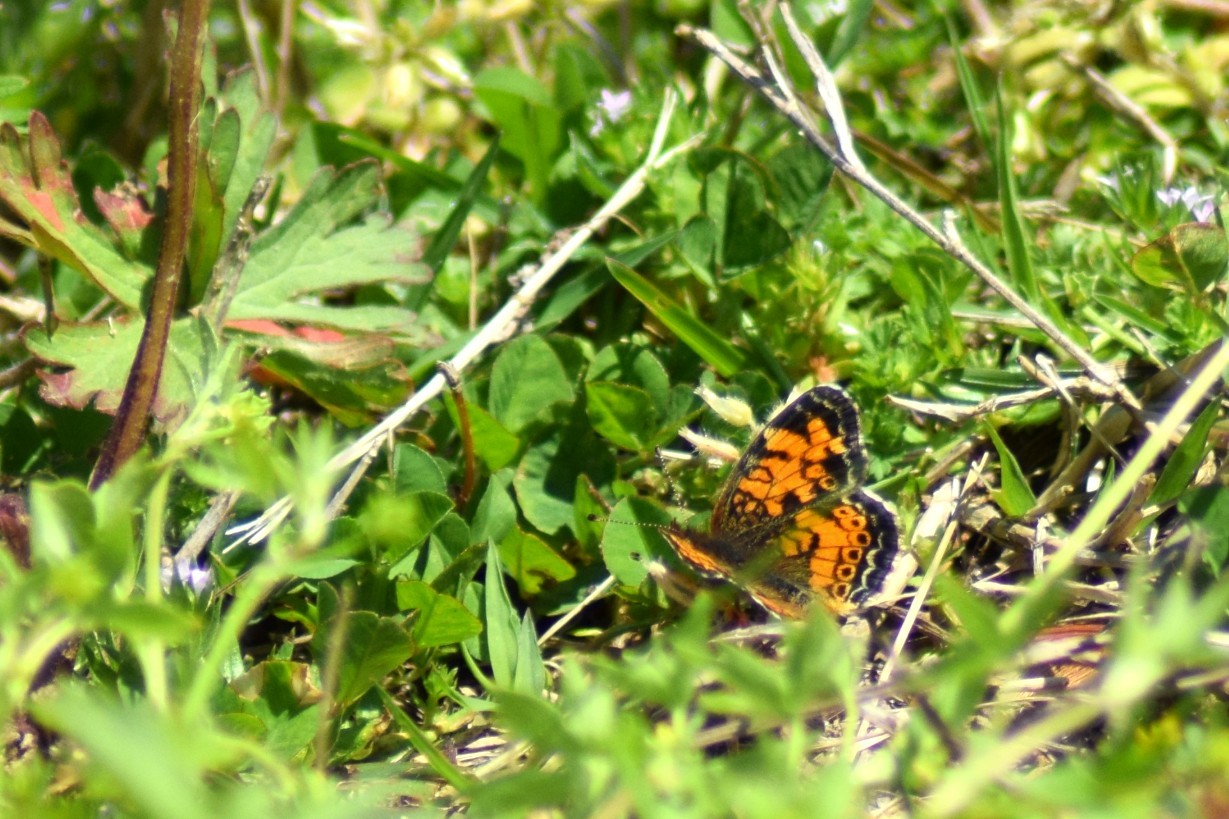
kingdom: Animalia
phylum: Arthropoda
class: Insecta
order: Lepidoptera
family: Nymphalidae
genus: Phyciodes
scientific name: Phyciodes tharos
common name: Pearl crescent
